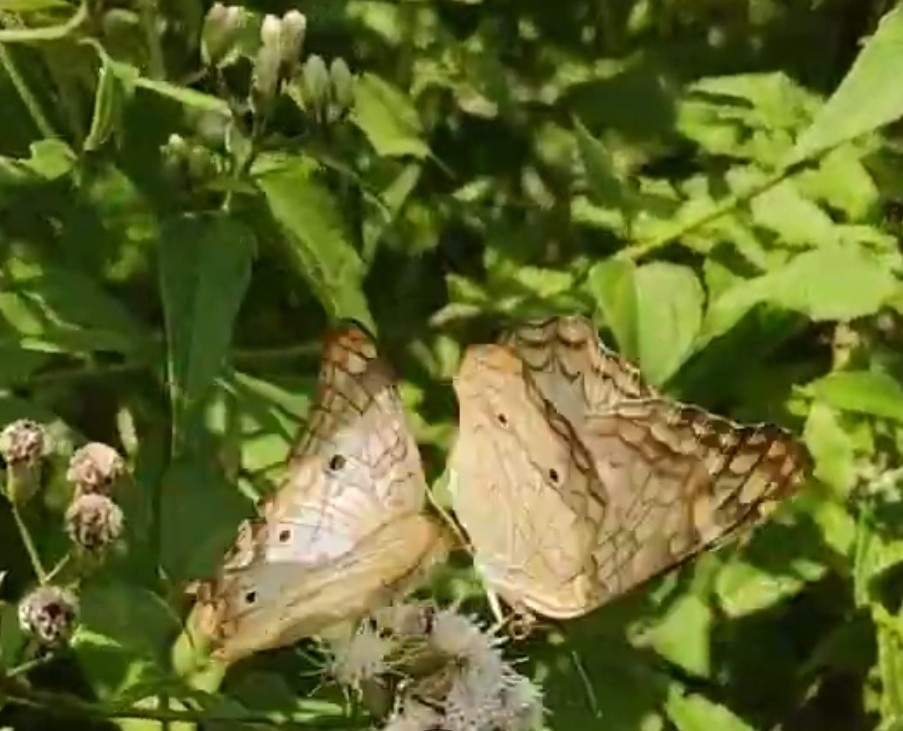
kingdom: Animalia
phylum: Arthropoda
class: Insecta
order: Lepidoptera
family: Nymphalidae
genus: Anartia
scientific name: Anartia jatrophae
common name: White peacock
